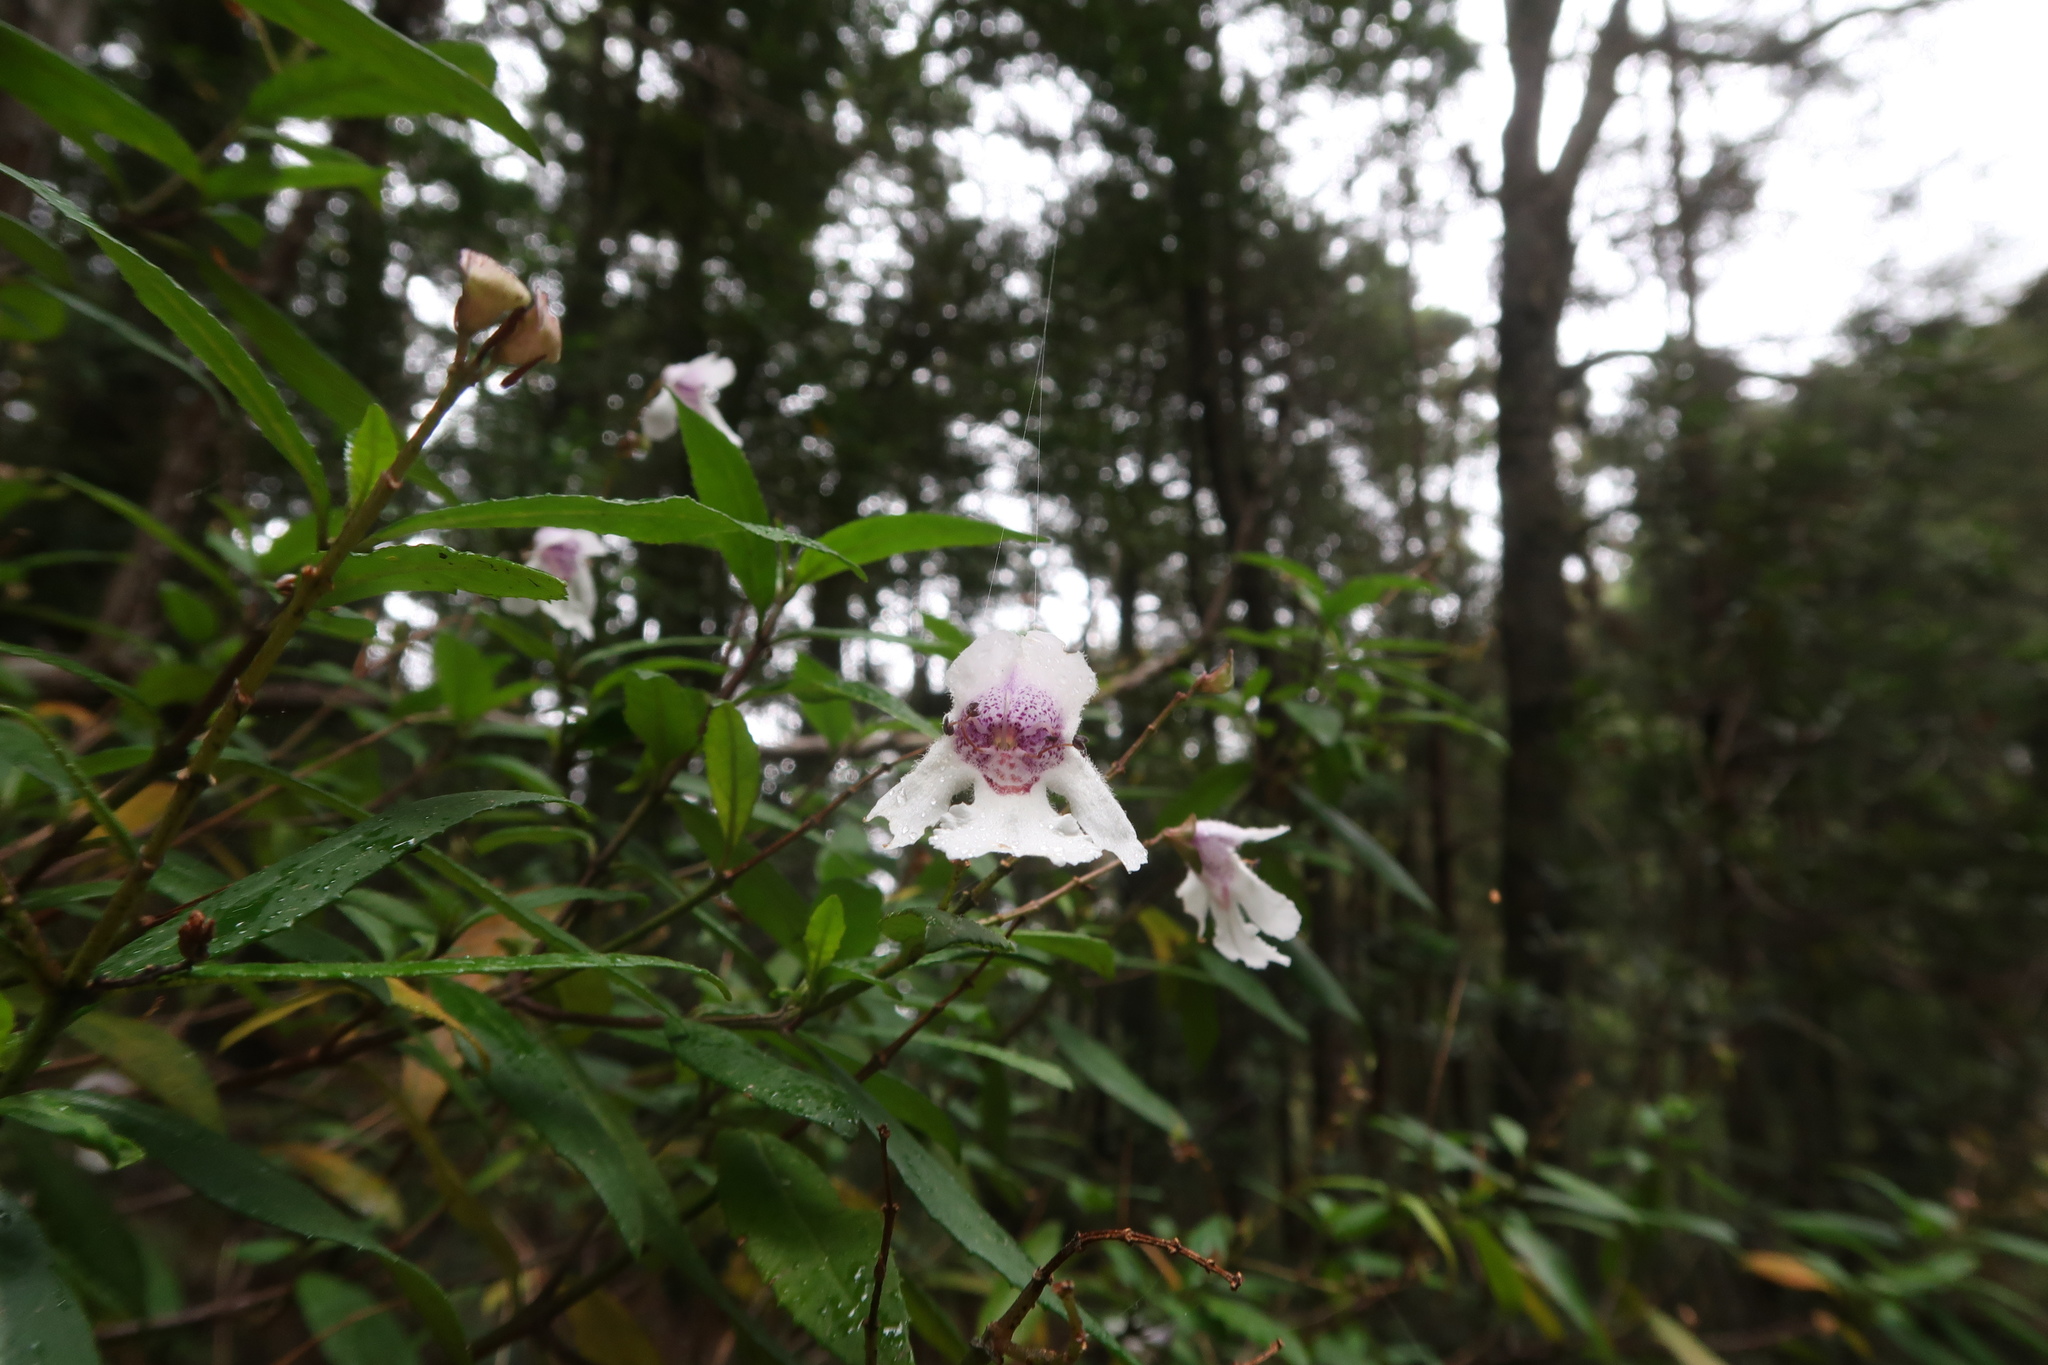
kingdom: Plantae
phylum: Tracheophyta
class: Magnoliopsida
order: Lamiales
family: Lamiaceae
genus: Prostanthera
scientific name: Prostanthera lasianthos
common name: Mountain-lilac
